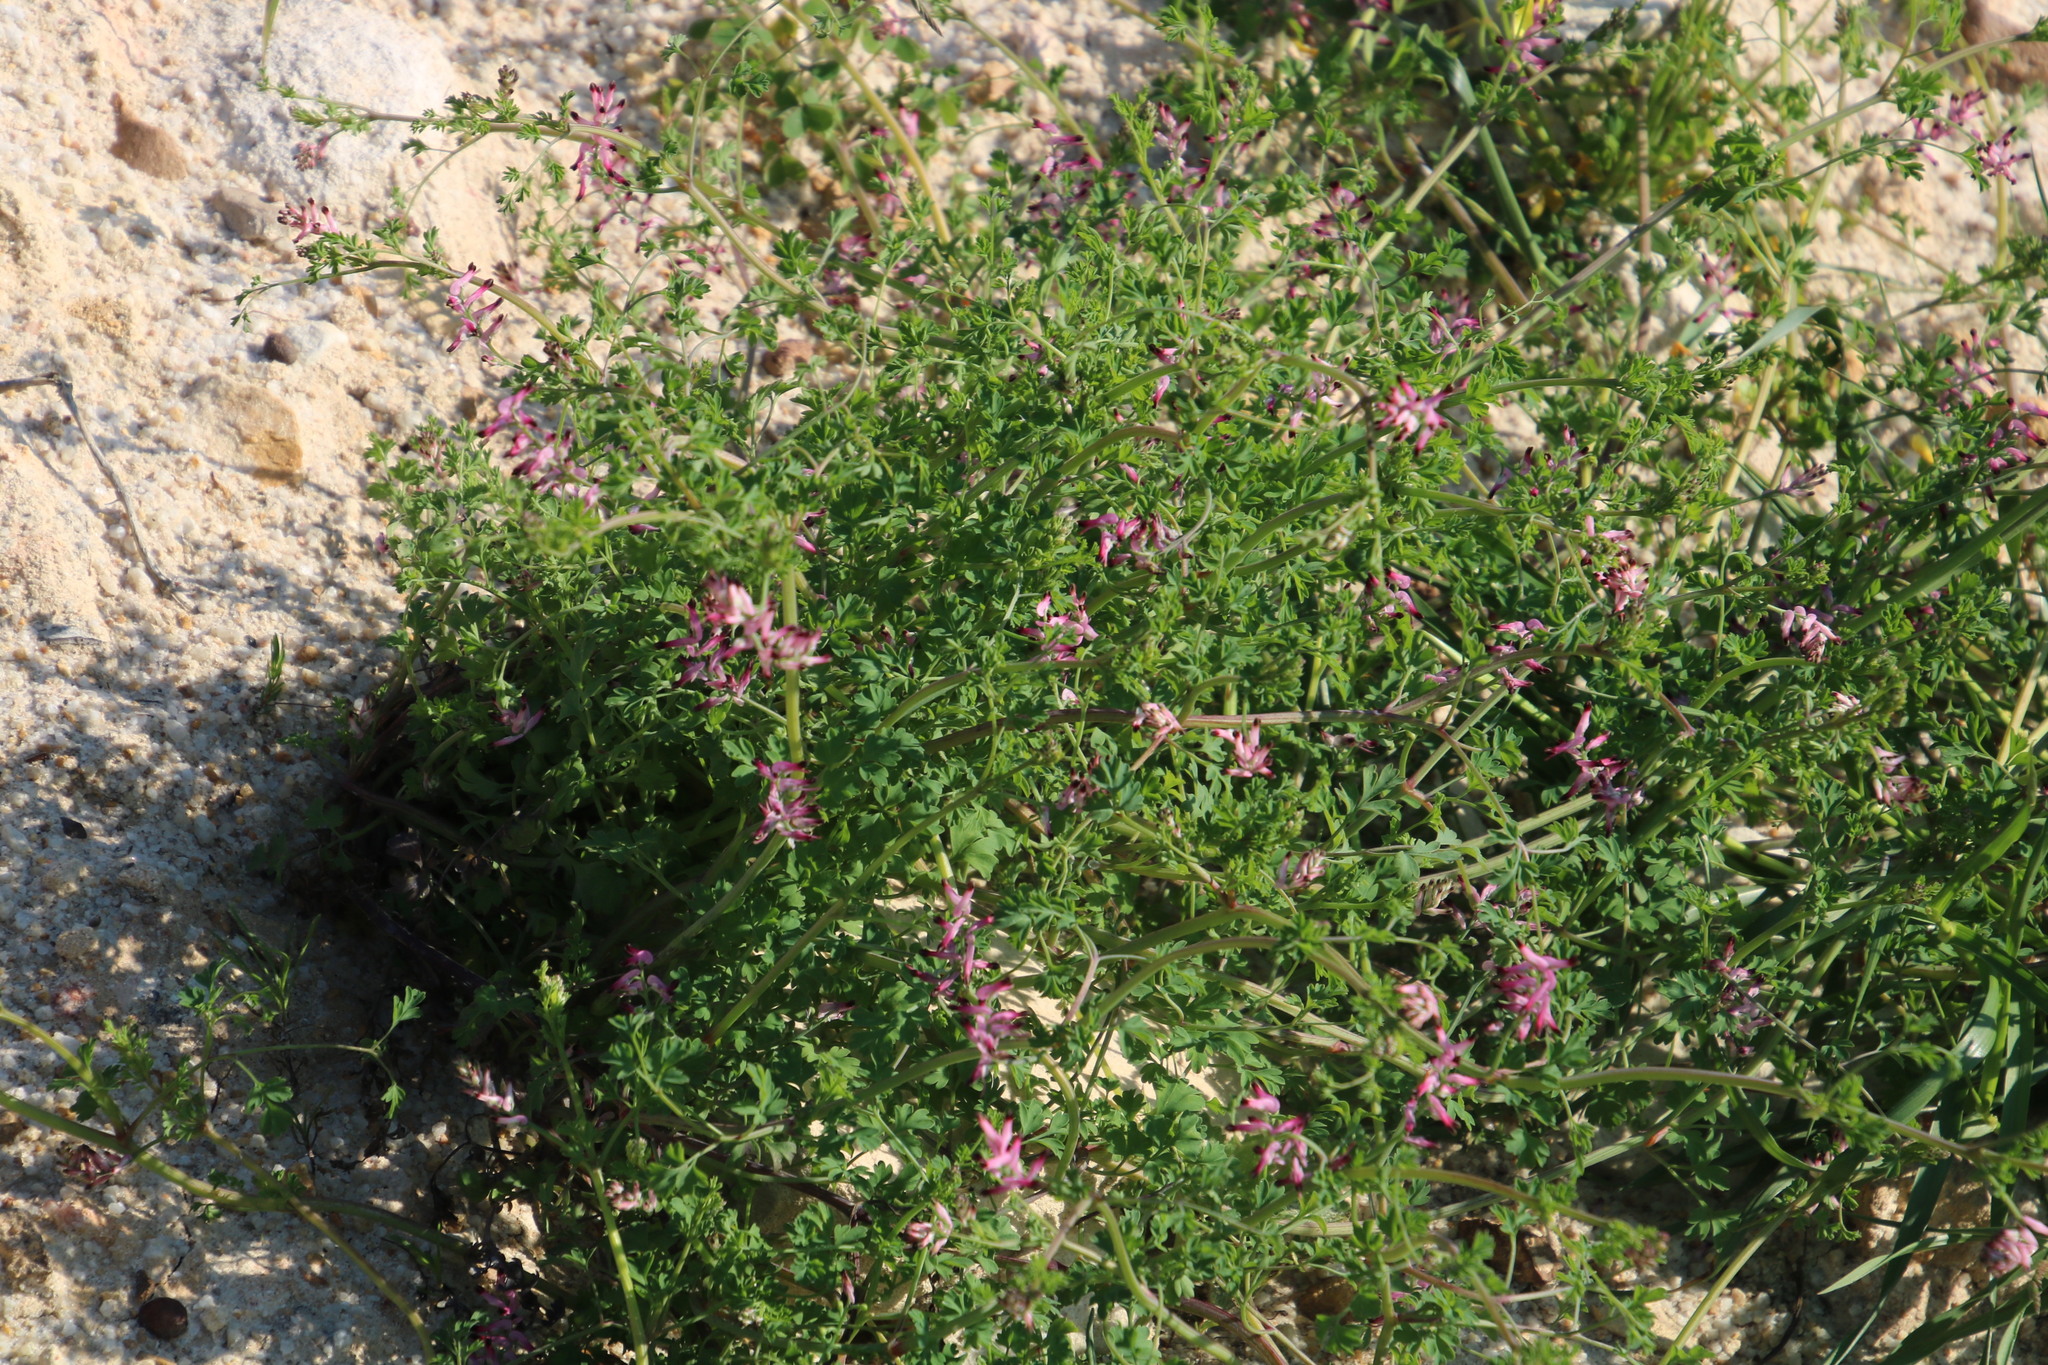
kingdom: Plantae
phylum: Tracheophyta
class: Magnoliopsida
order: Ranunculales
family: Papaveraceae
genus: Fumaria
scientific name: Fumaria muralis
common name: Common ramping-fumitory
